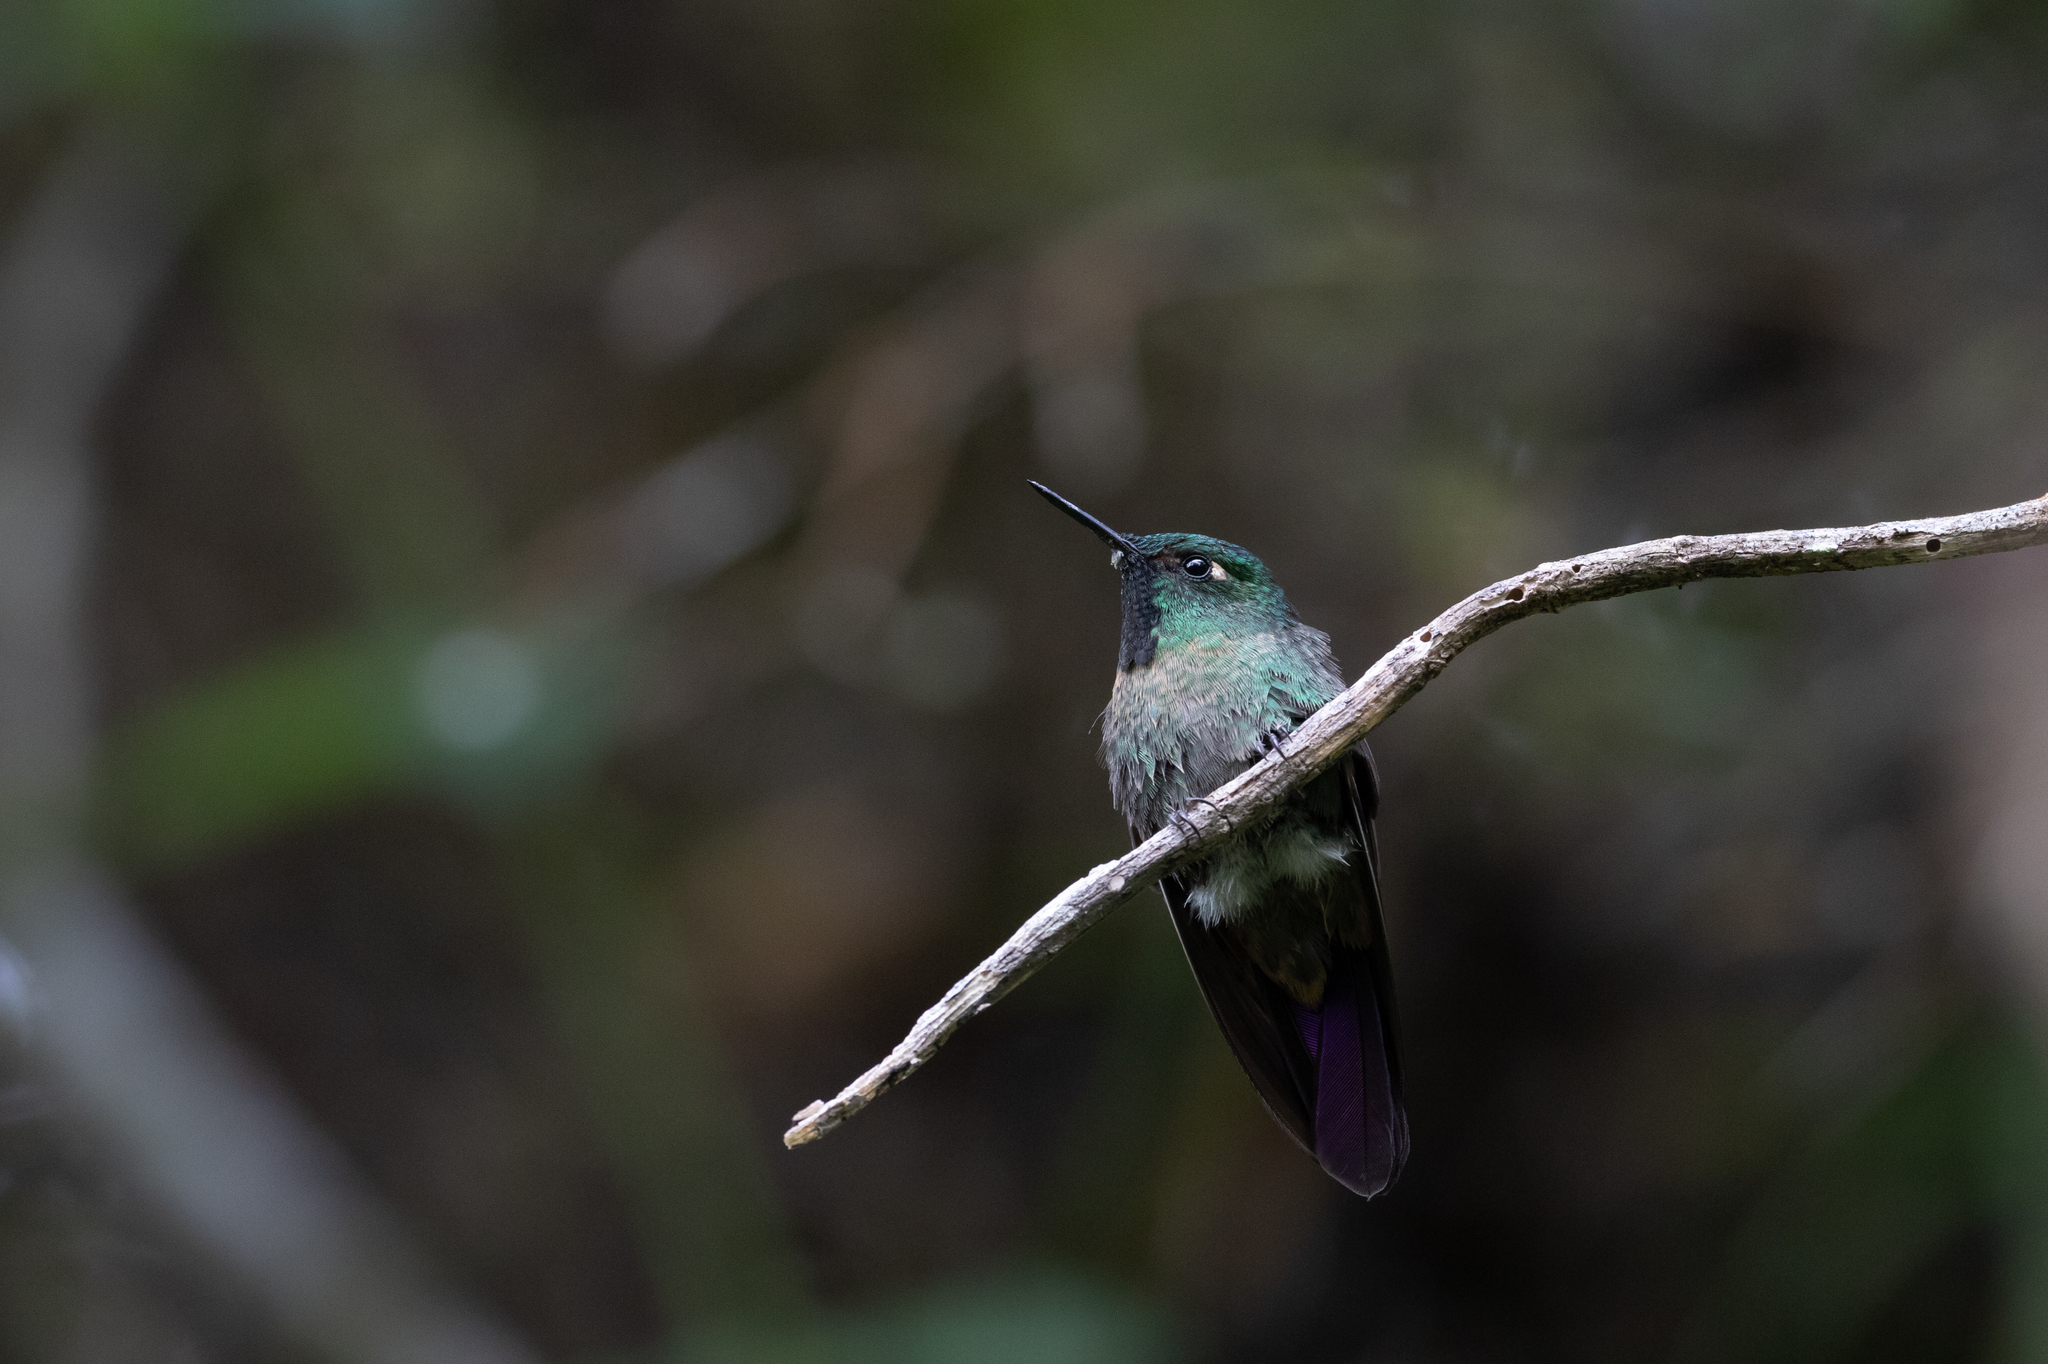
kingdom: Animalia
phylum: Chordata
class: Aves
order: Apodiformes
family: Trochilidae
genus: Metallura
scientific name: Metallura tyrianthina
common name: Tyrian metaltail
